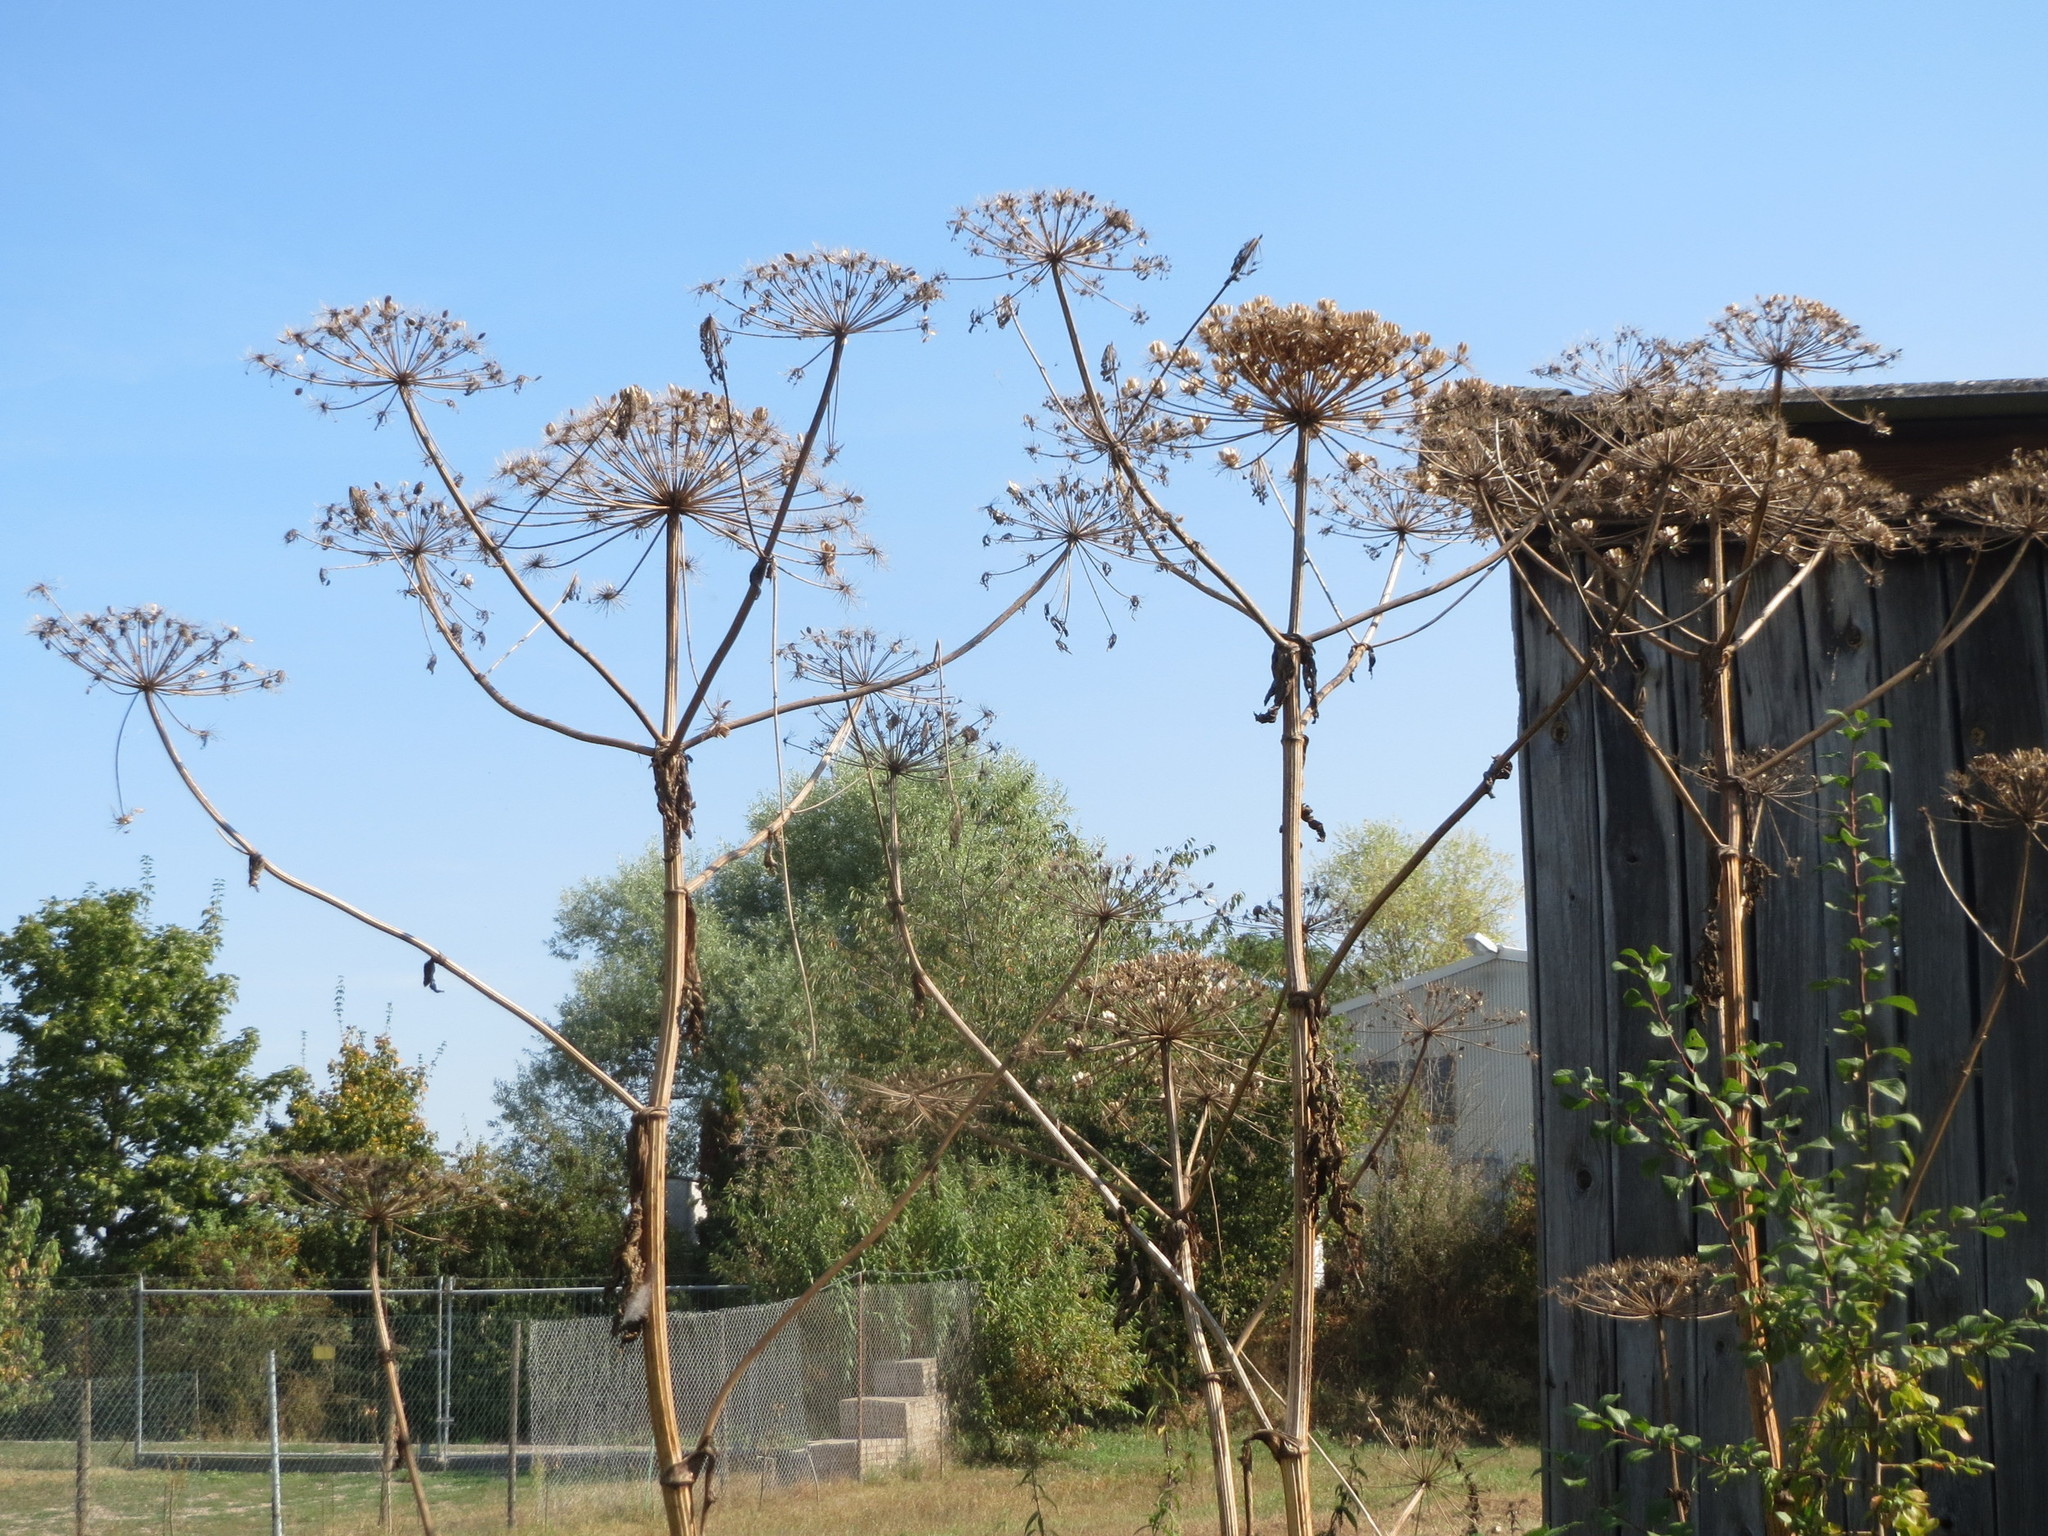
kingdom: Plantae
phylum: Tracheophyta
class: Magnoliopsida
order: Apiales
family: Apiaceae
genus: Heracleum
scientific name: Heracleum mantegazzianum
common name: Giant hogweed
